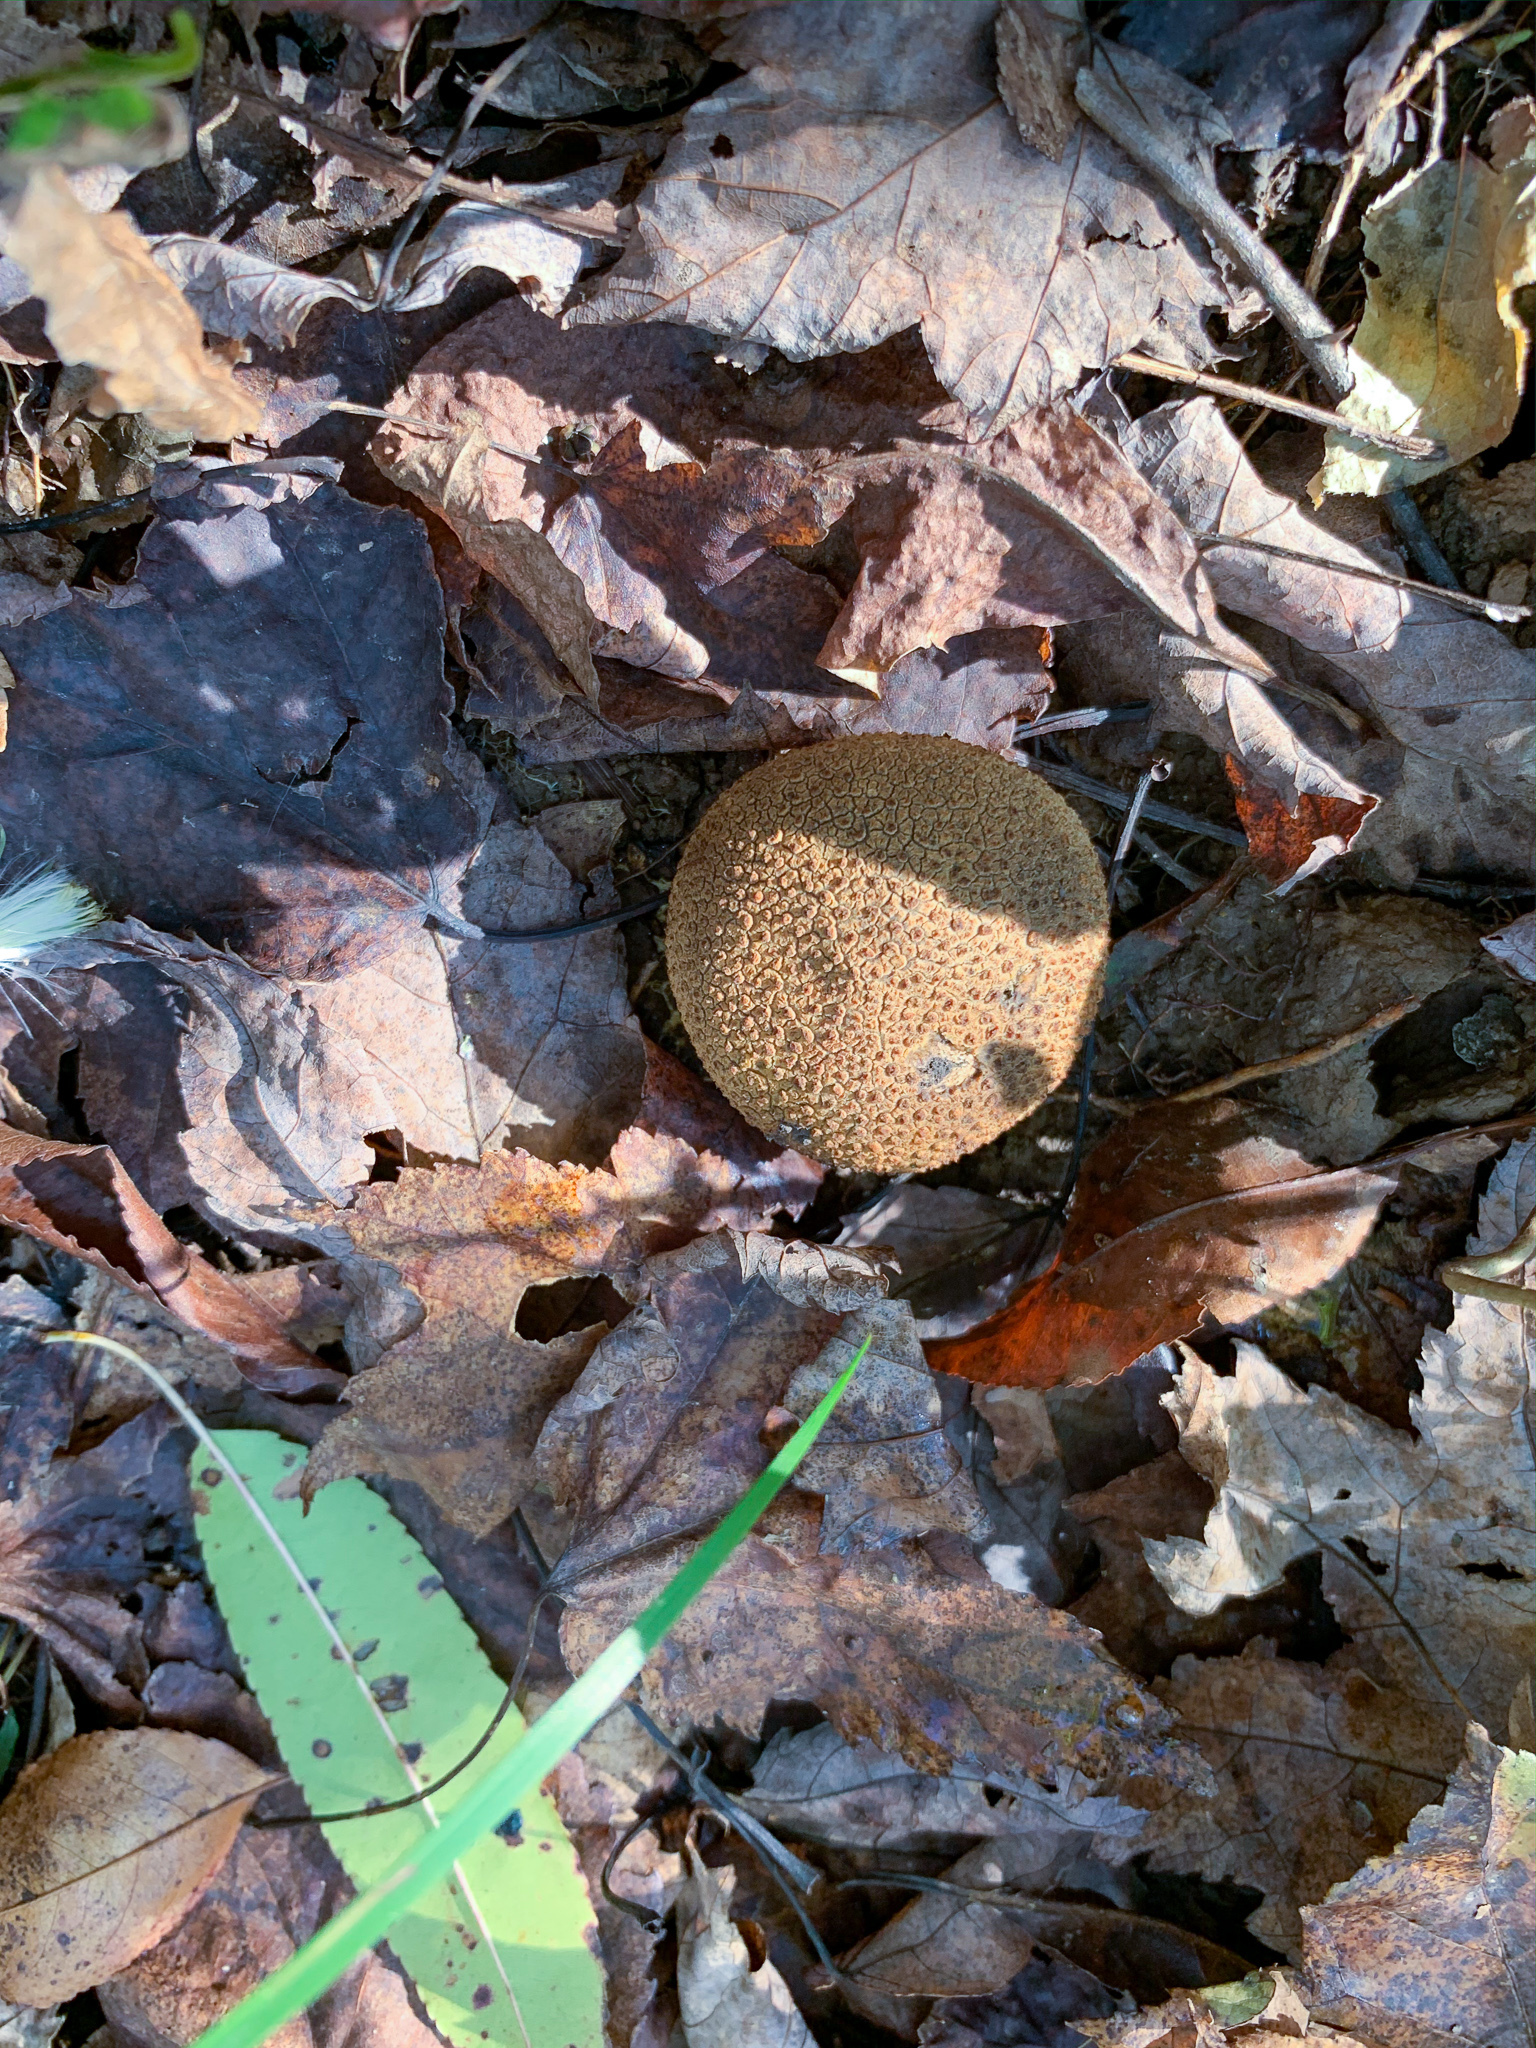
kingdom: Fungi
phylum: Basidiomycota
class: Agaricomycetes
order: Boletales
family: Sclerodermataceae
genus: Scleroderma
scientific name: Scleroderma citrinum
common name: Common earthball
